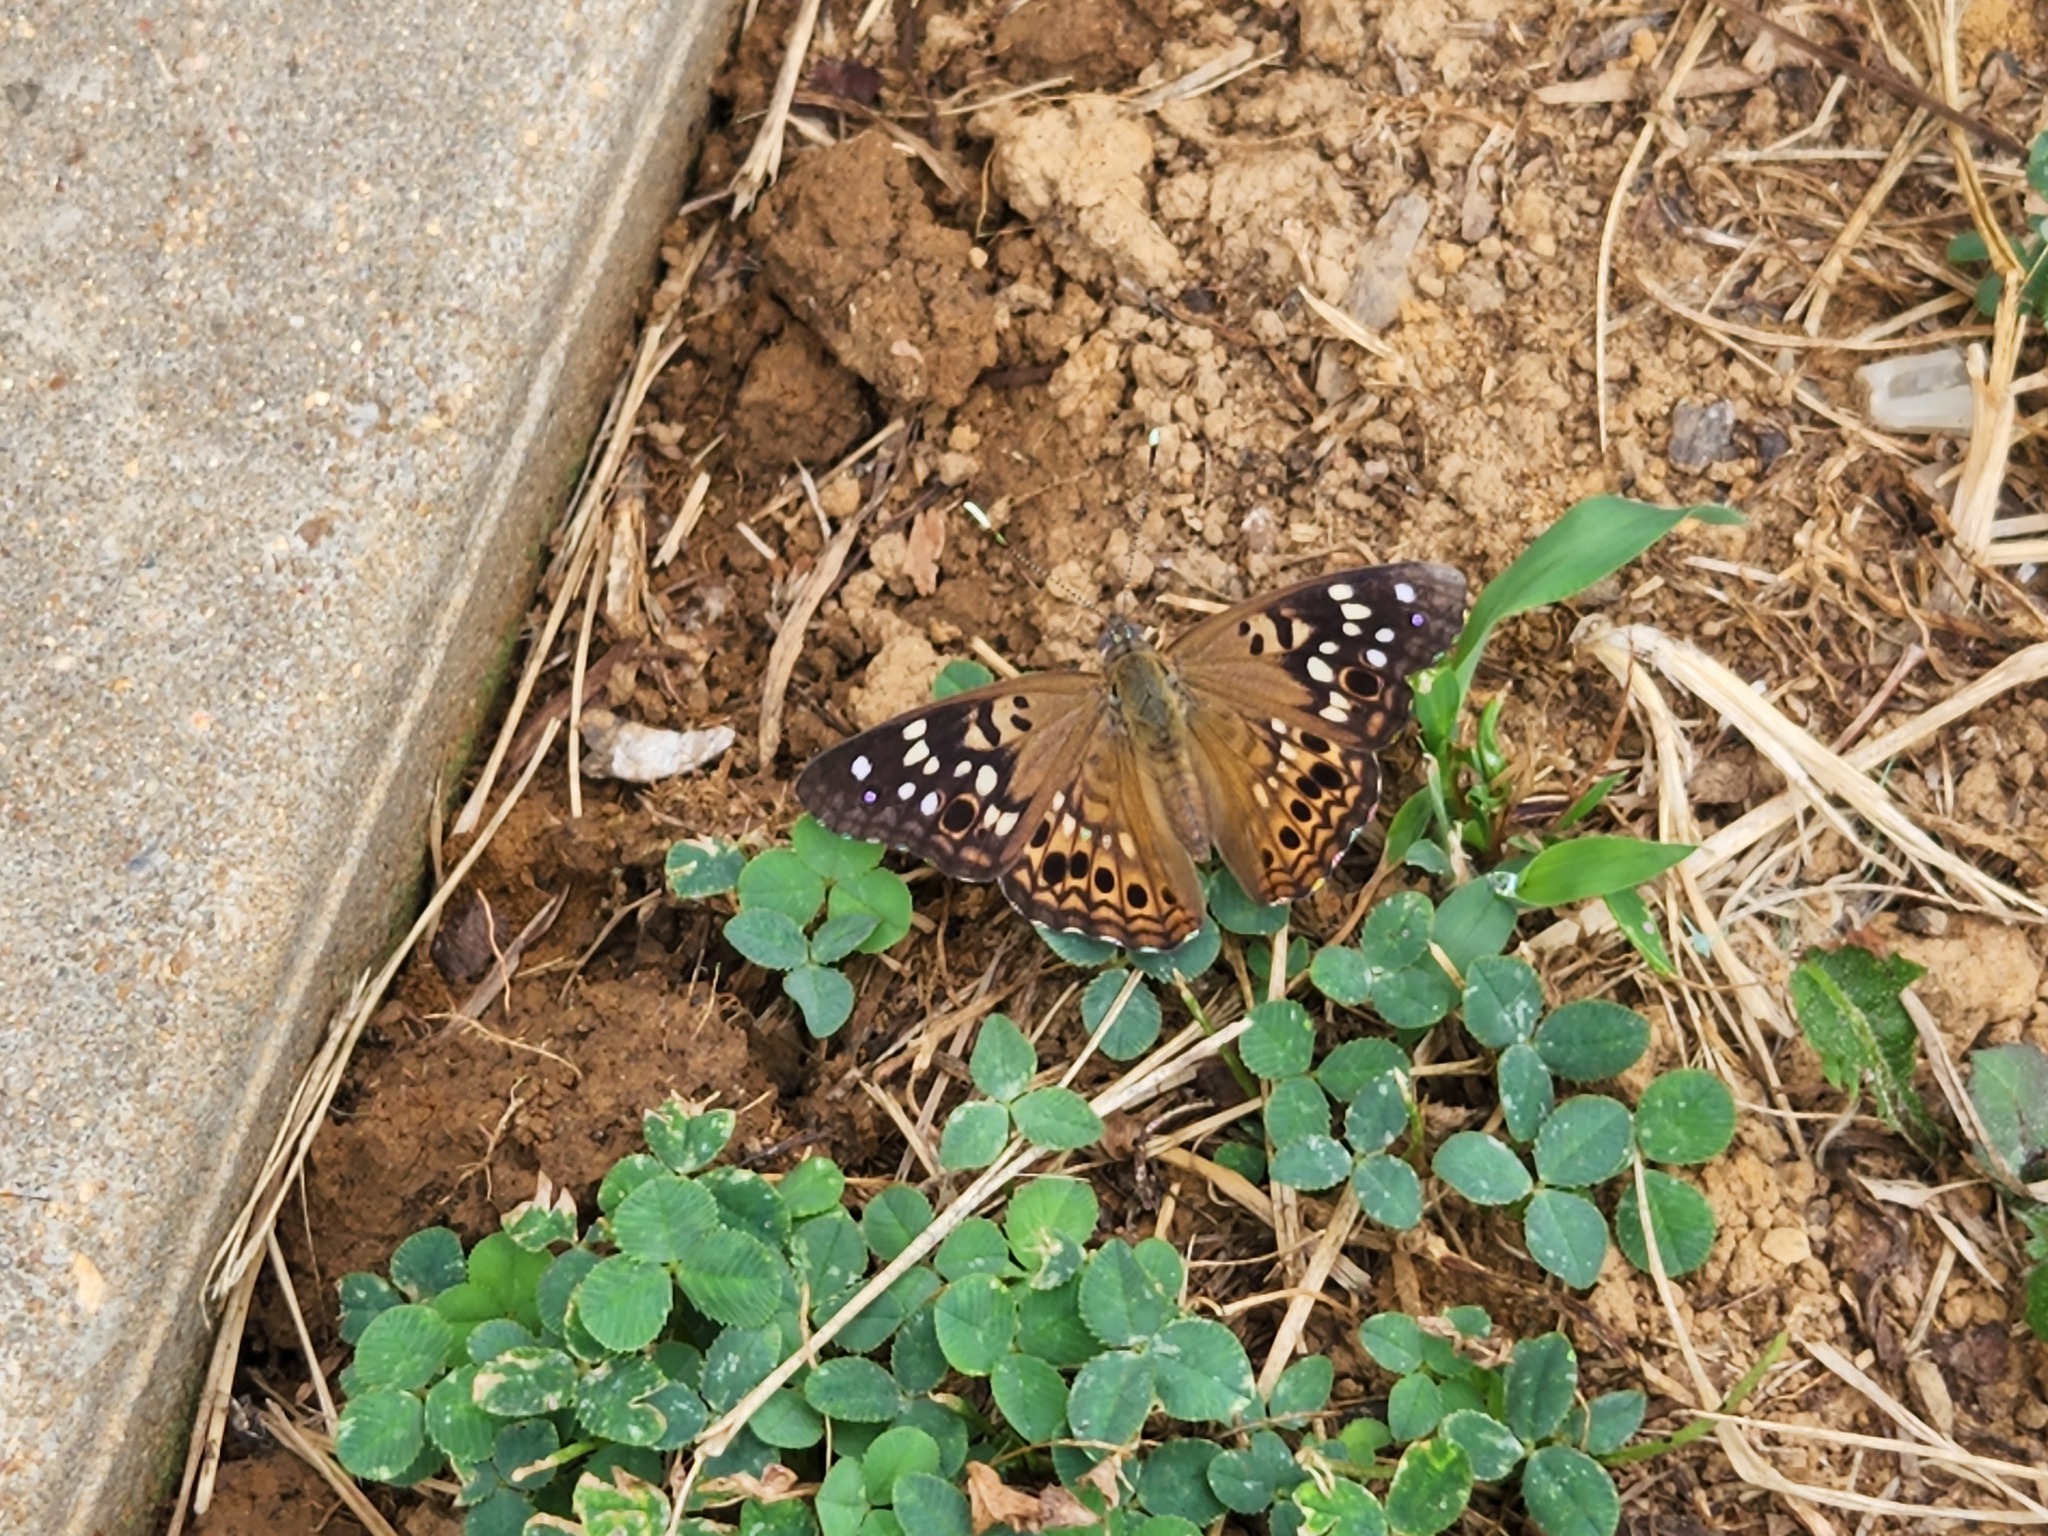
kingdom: Animalia
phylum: Arthropoda
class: Insecta
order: Lepidoptera
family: Nymphalidae
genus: Asterocampa
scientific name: Asterocampa celtis
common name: Hackberry emperor
